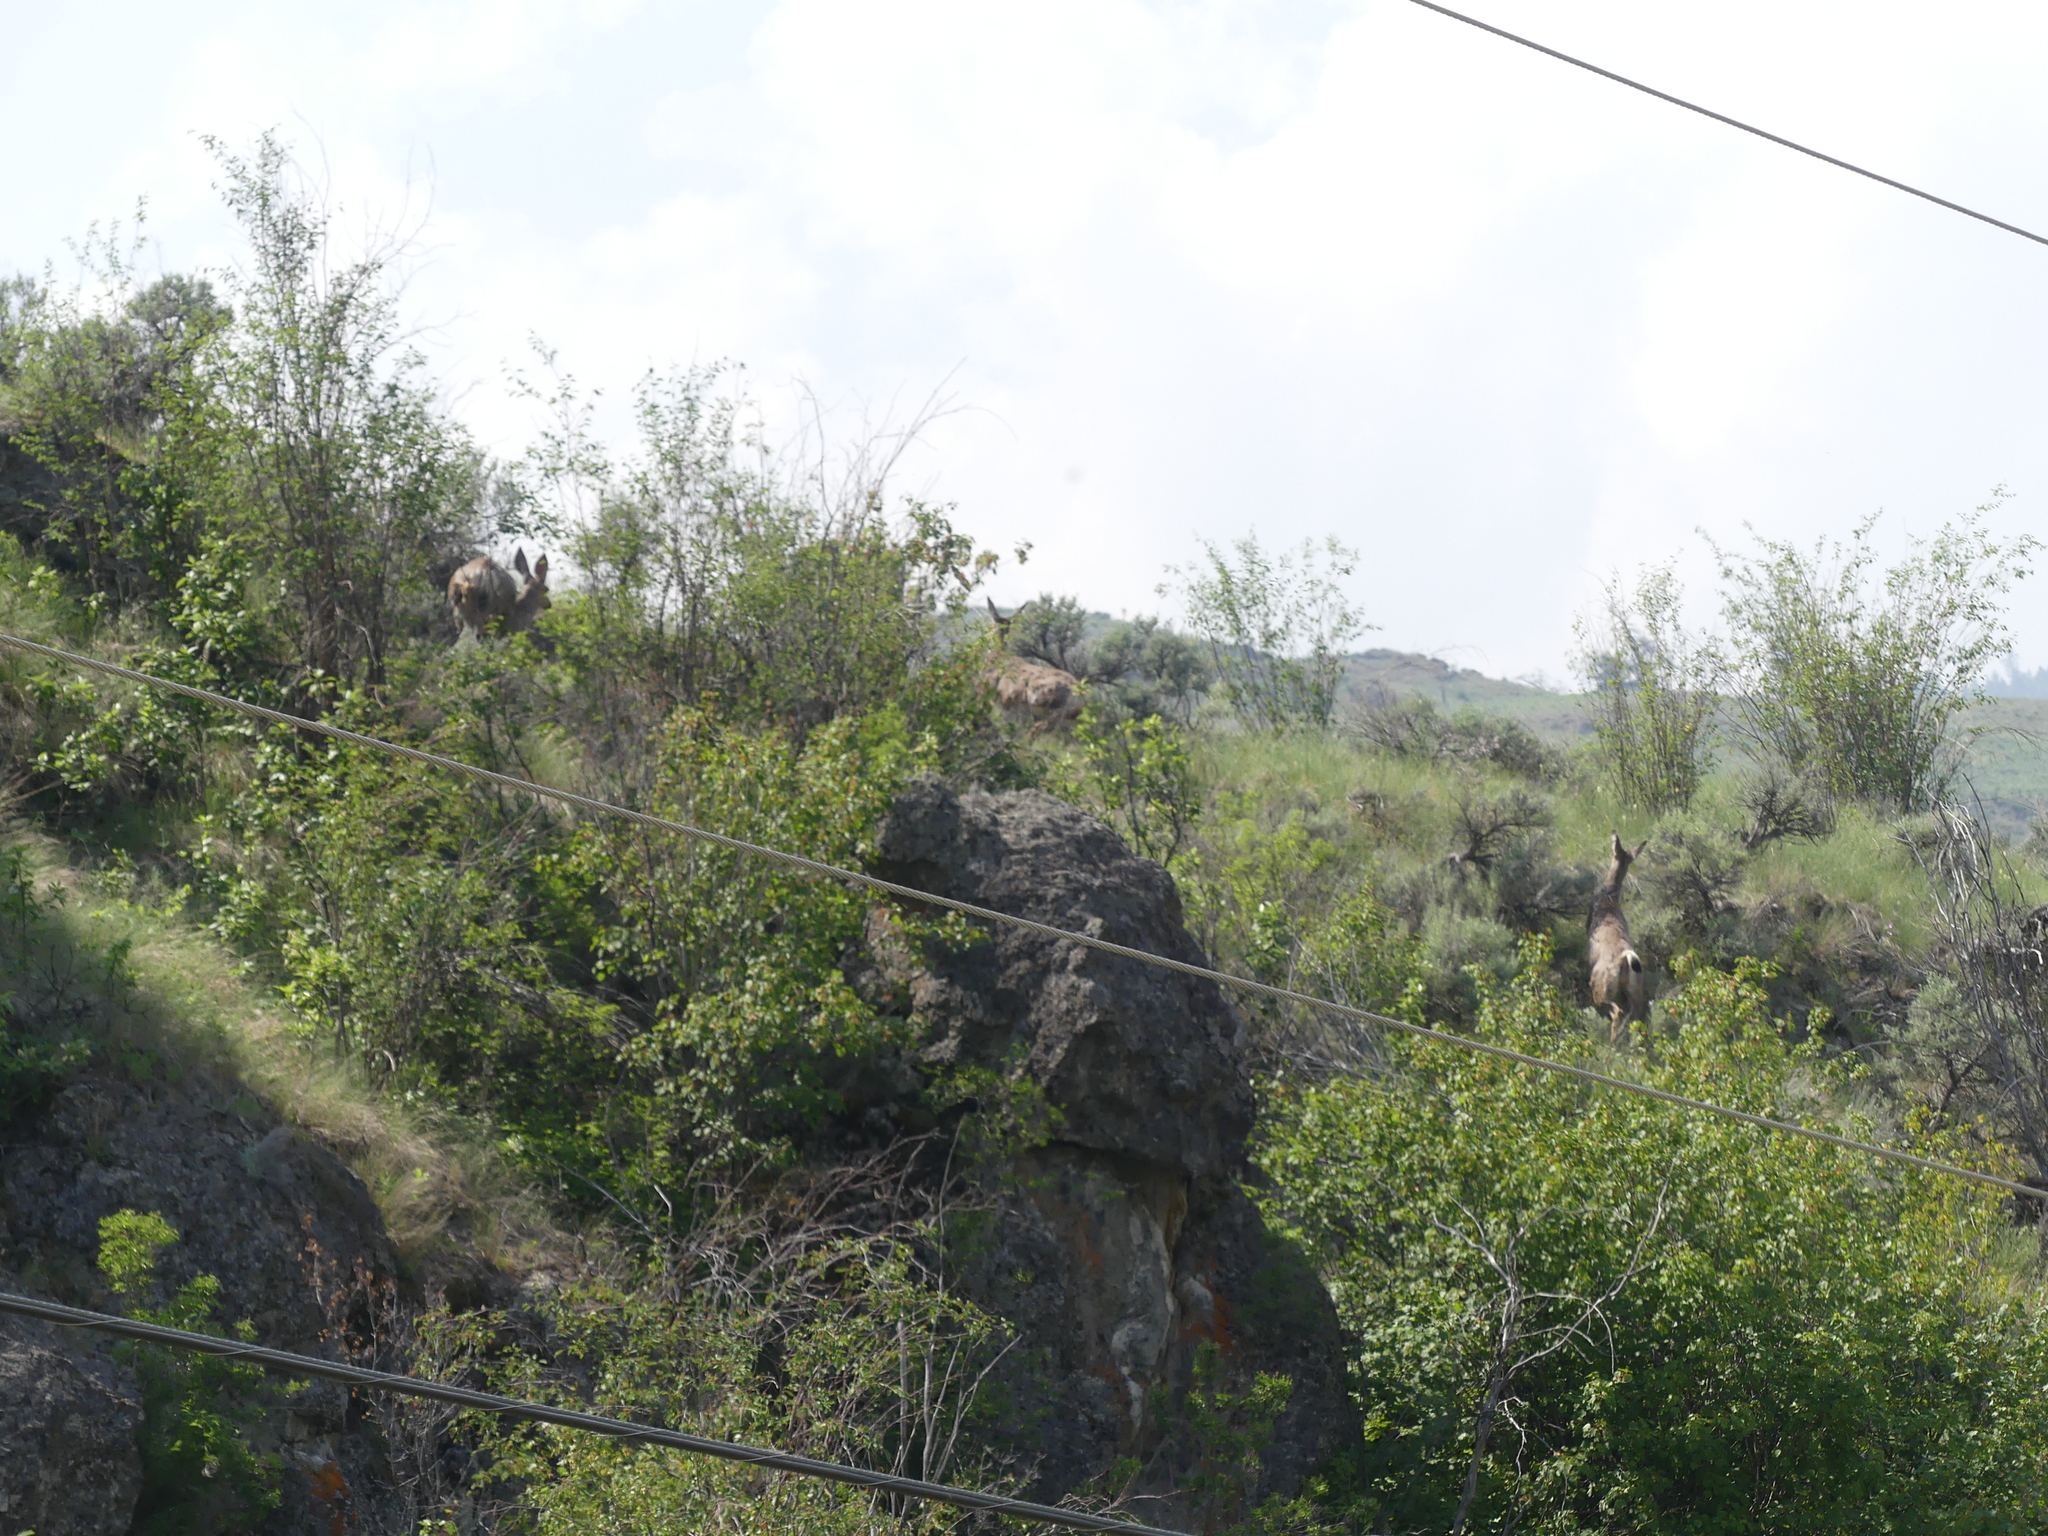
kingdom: Animalia
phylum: Chordata
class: Mammalia
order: Artiodactyla
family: Cervidae
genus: Odocoileus
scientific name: Odocoileus hemionus
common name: Mule deer
